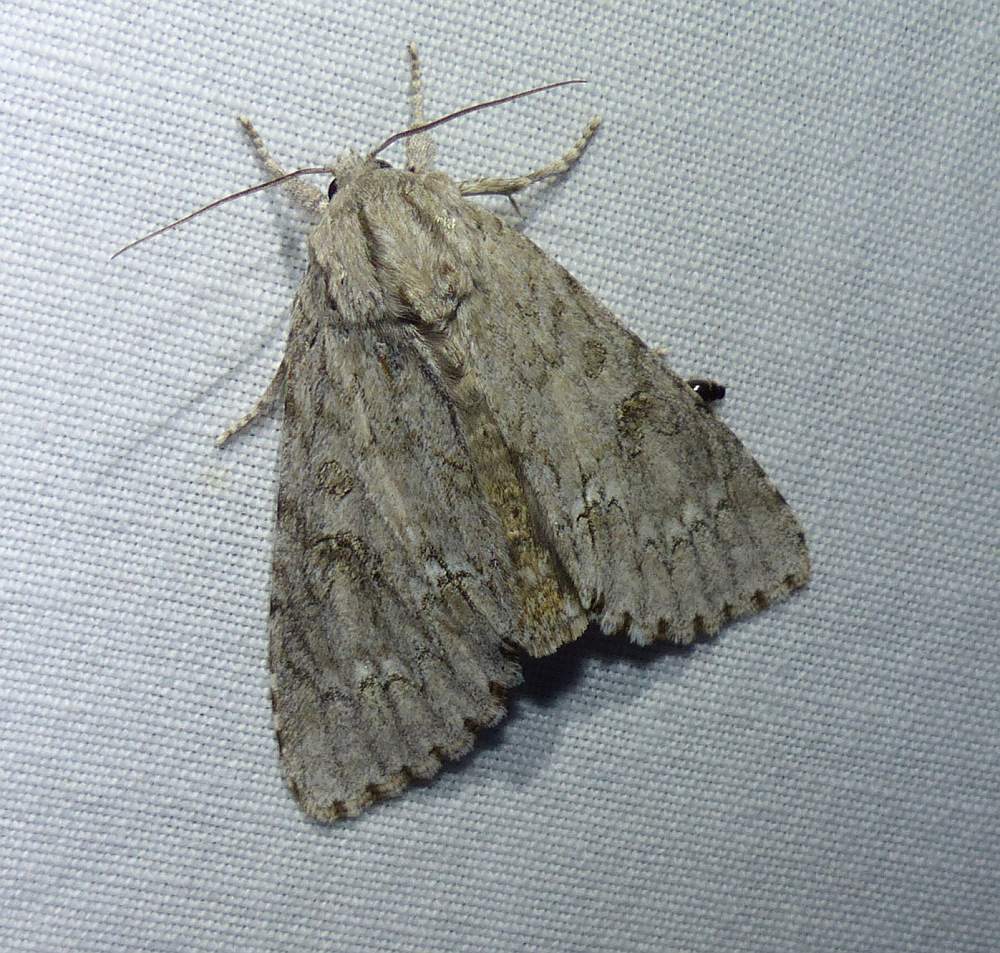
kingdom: Animalia
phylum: Arthropoda
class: Insecta
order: Lepidoptera
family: Noctuidae
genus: Acronicta
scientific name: Acronicta americana
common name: American dagger
